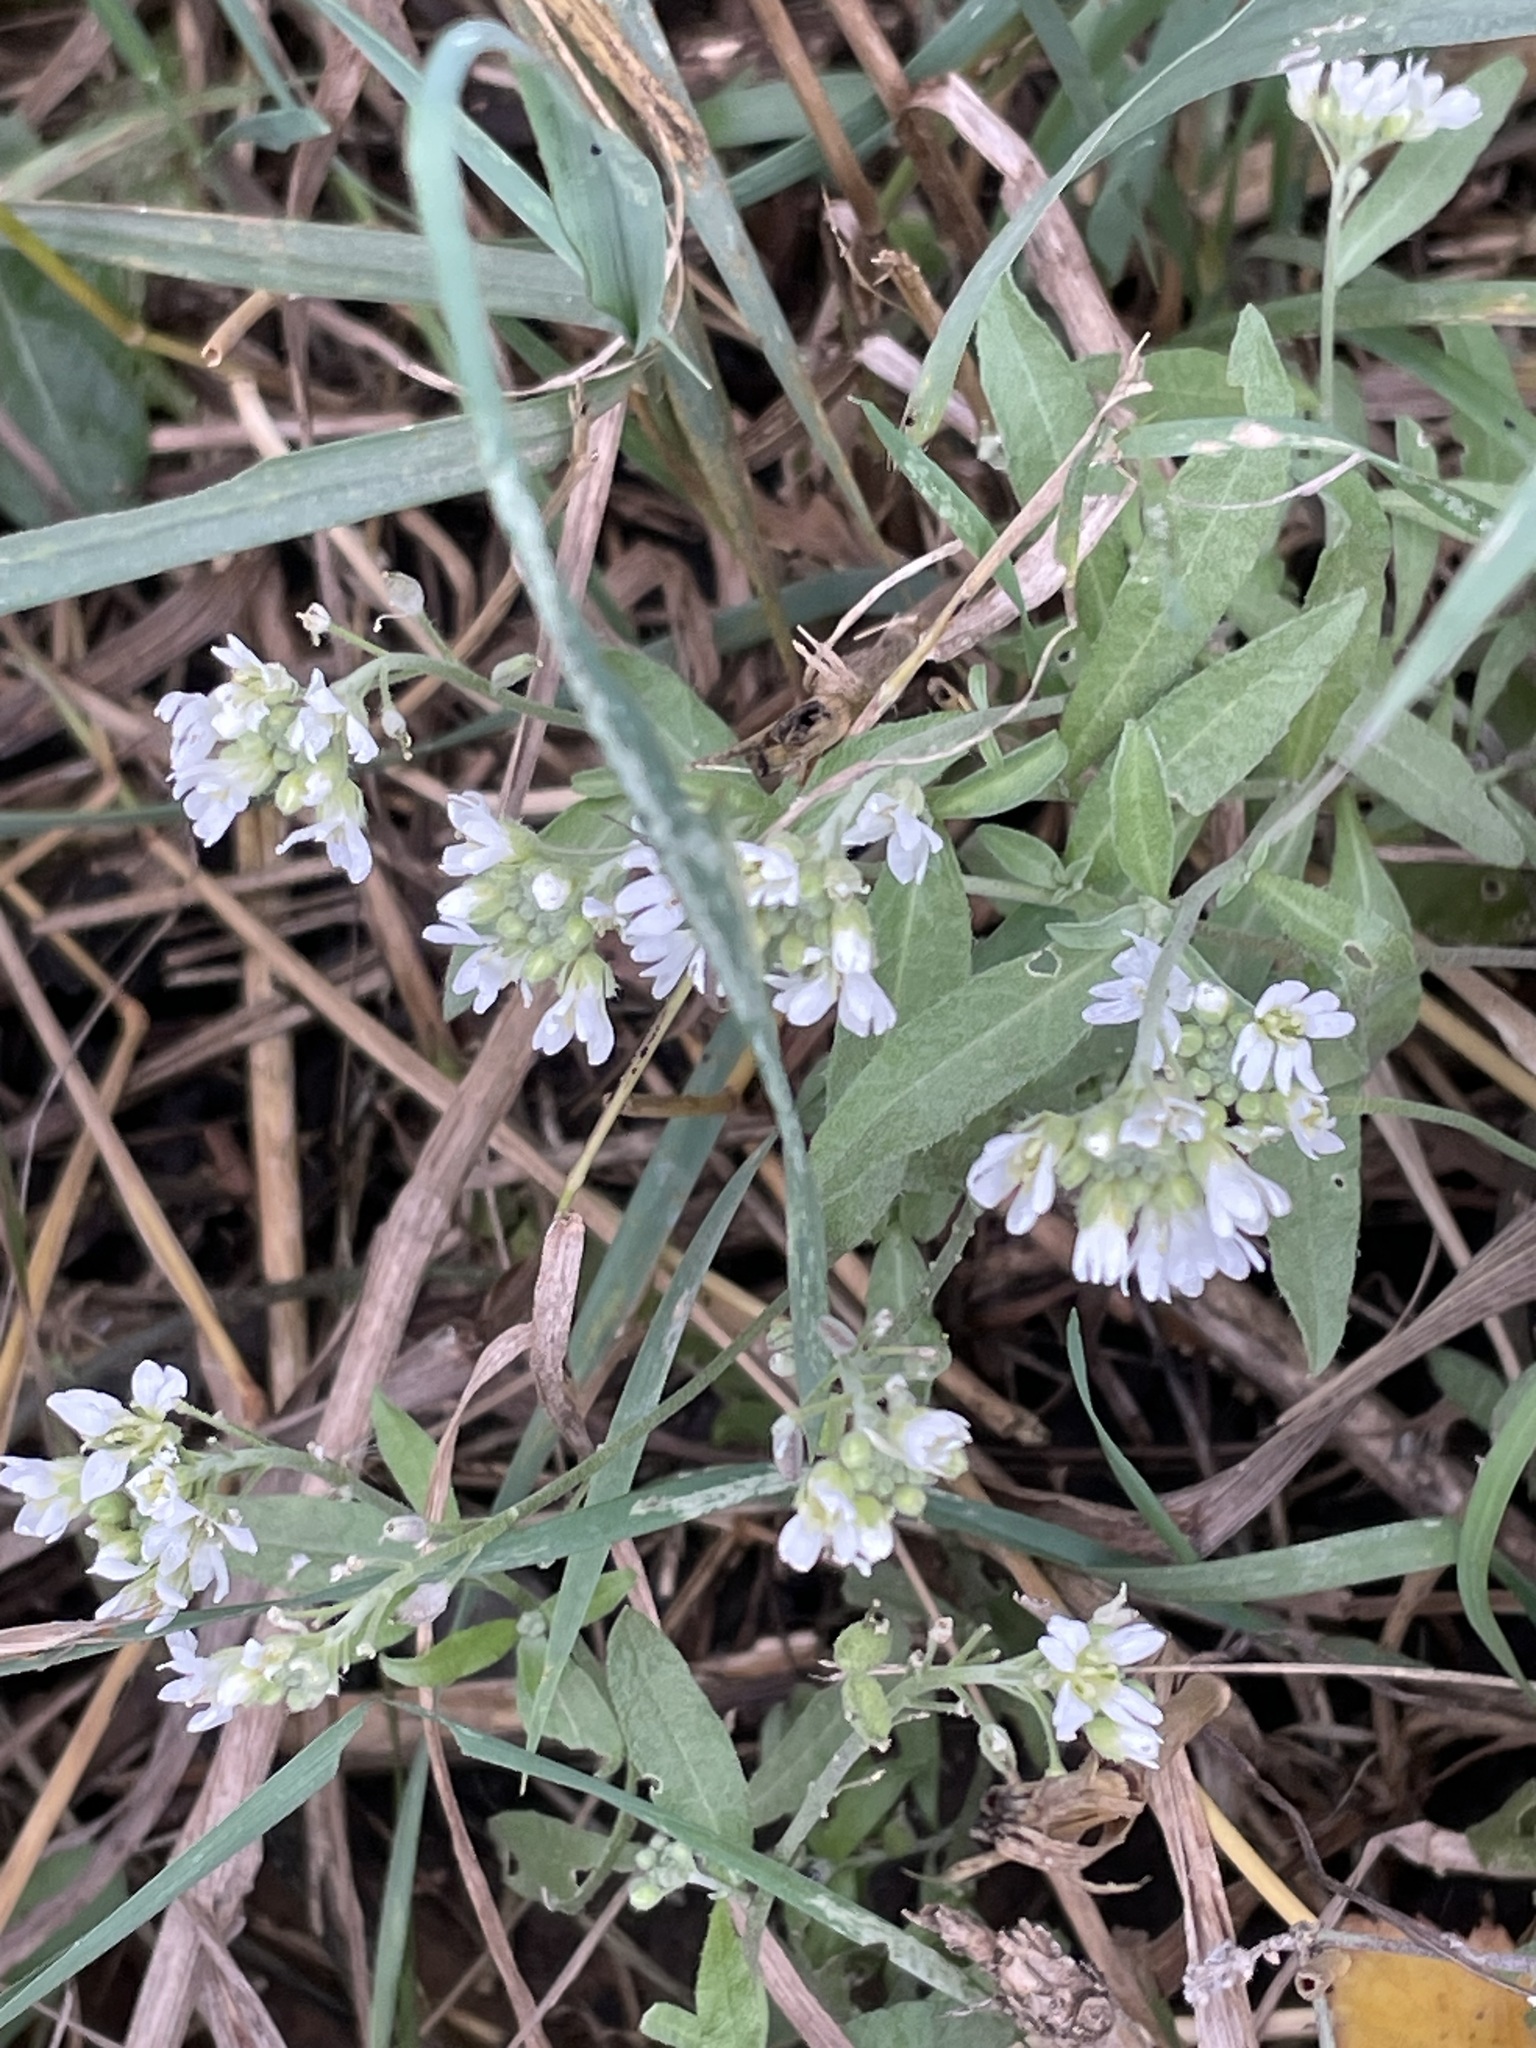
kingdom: Plantae
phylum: Tracheophyta
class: Magnoliopsida
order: Brassicales
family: Brassicaceae
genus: Berteroa
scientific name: Berteroa incana
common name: Hoary alison
